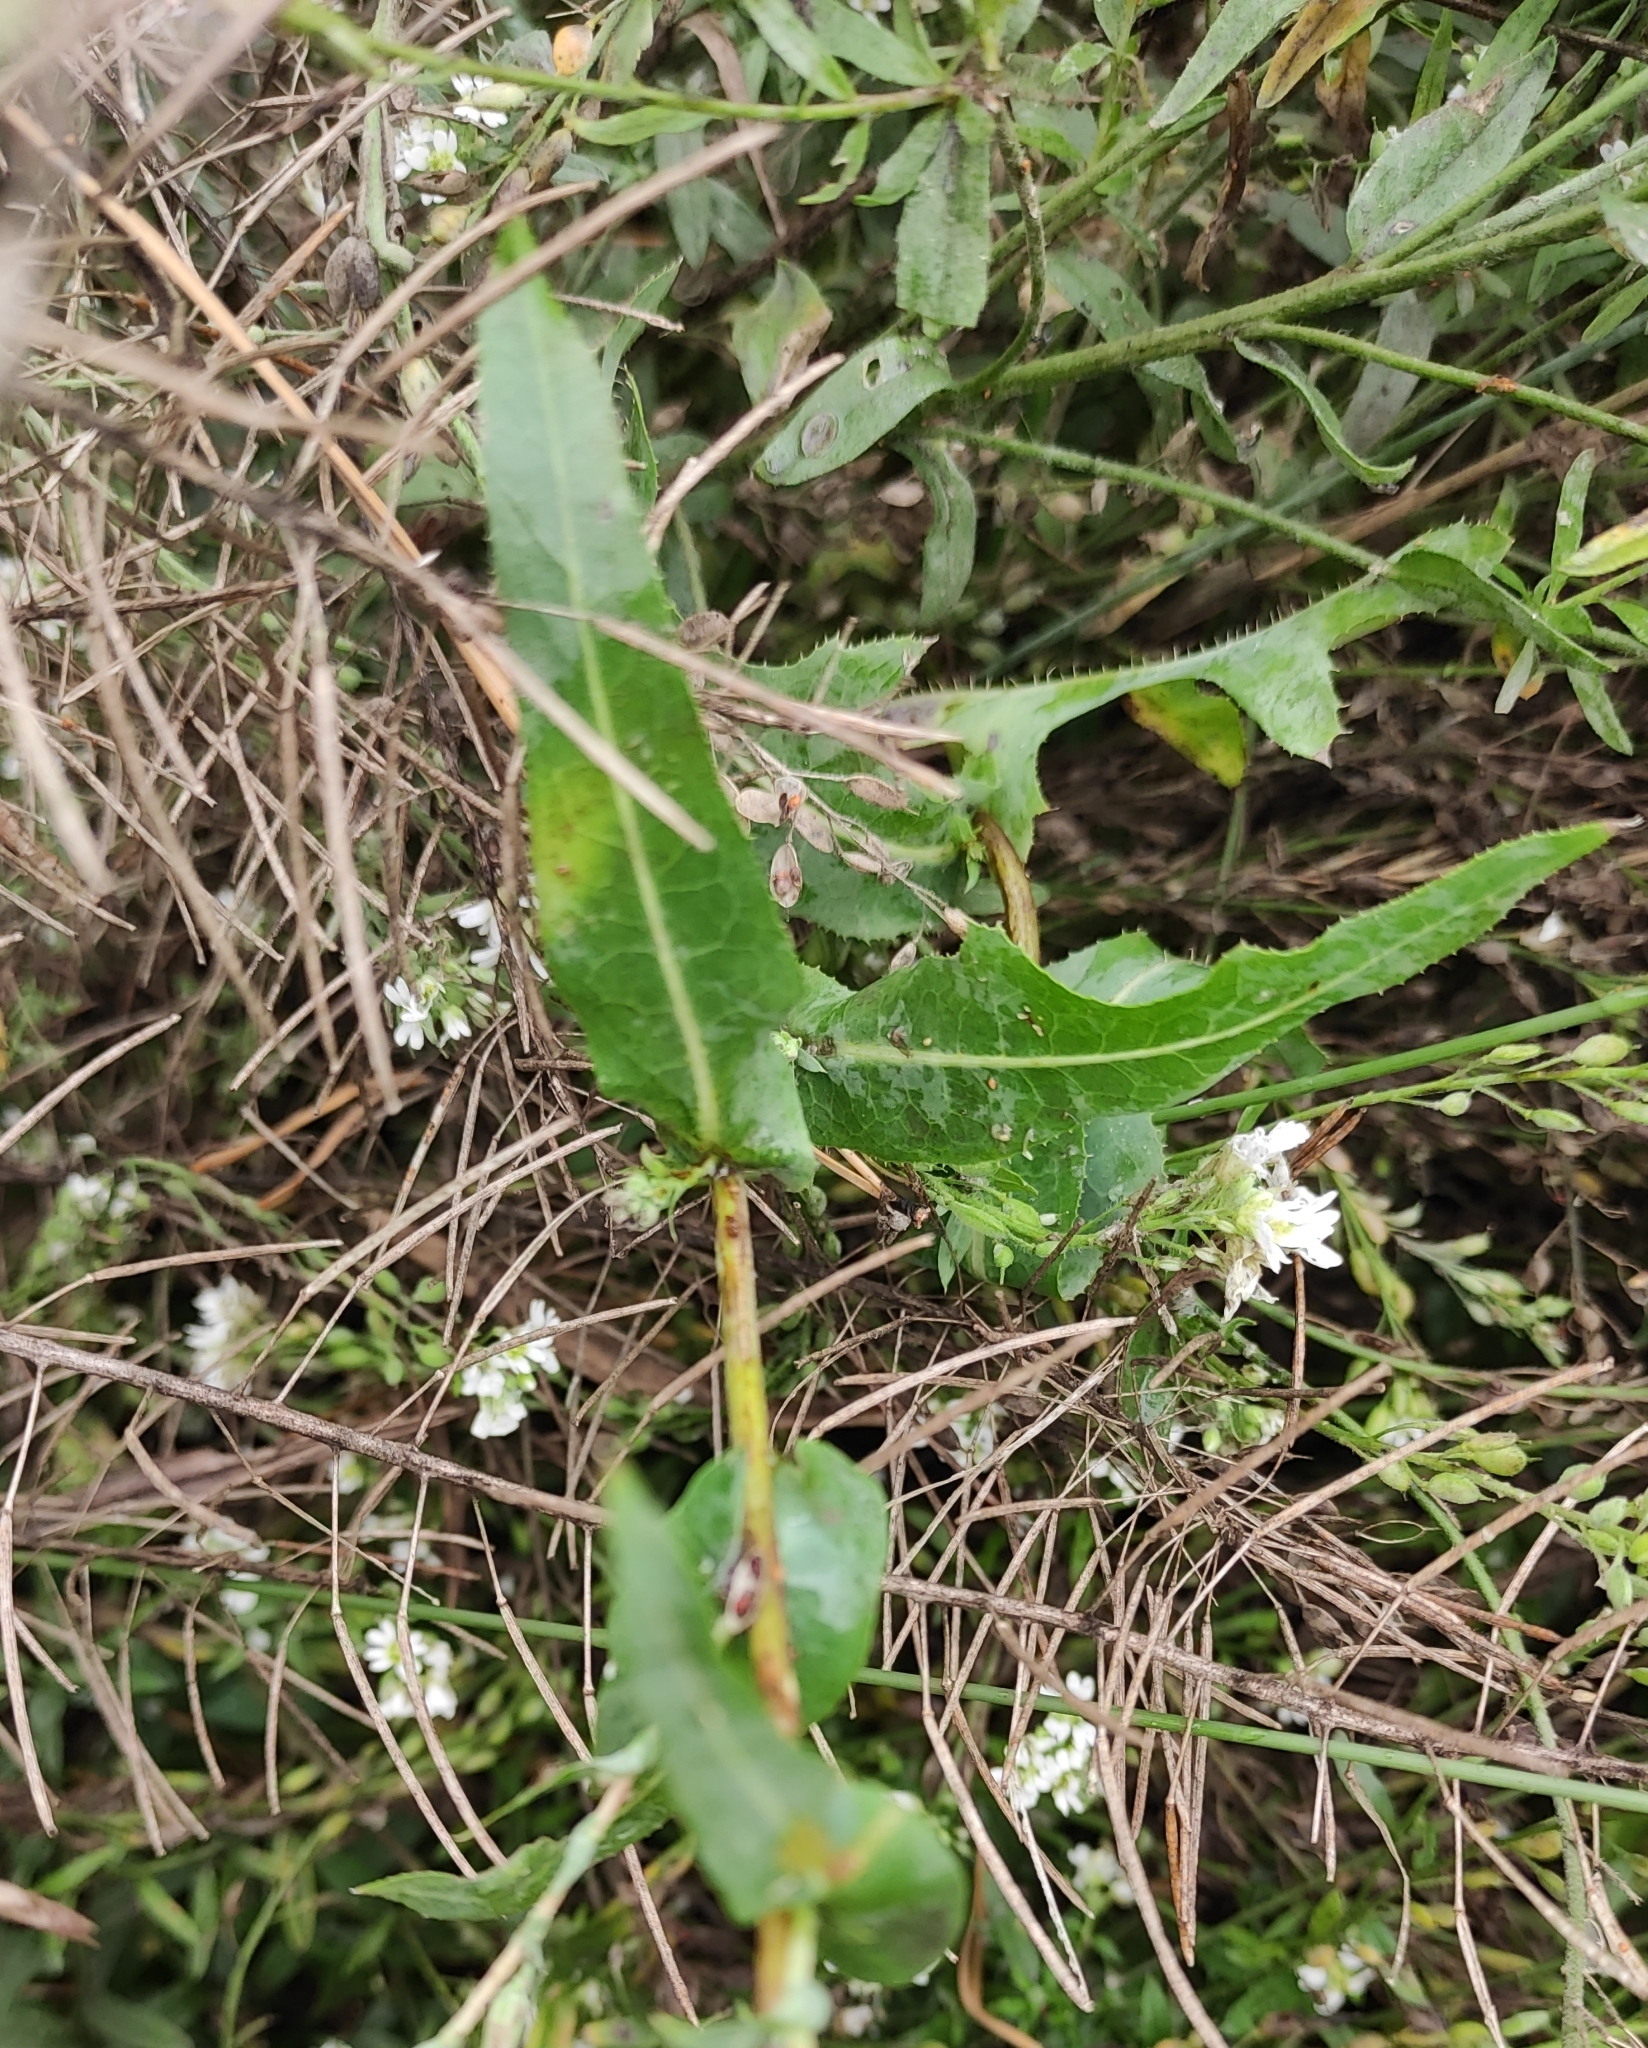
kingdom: Plantae
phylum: Tracheophyta
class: Magnoliopsida
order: Asterales
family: Asteraceae
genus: Lactuca
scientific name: Lactuca serriola
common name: Prickly lettuce
